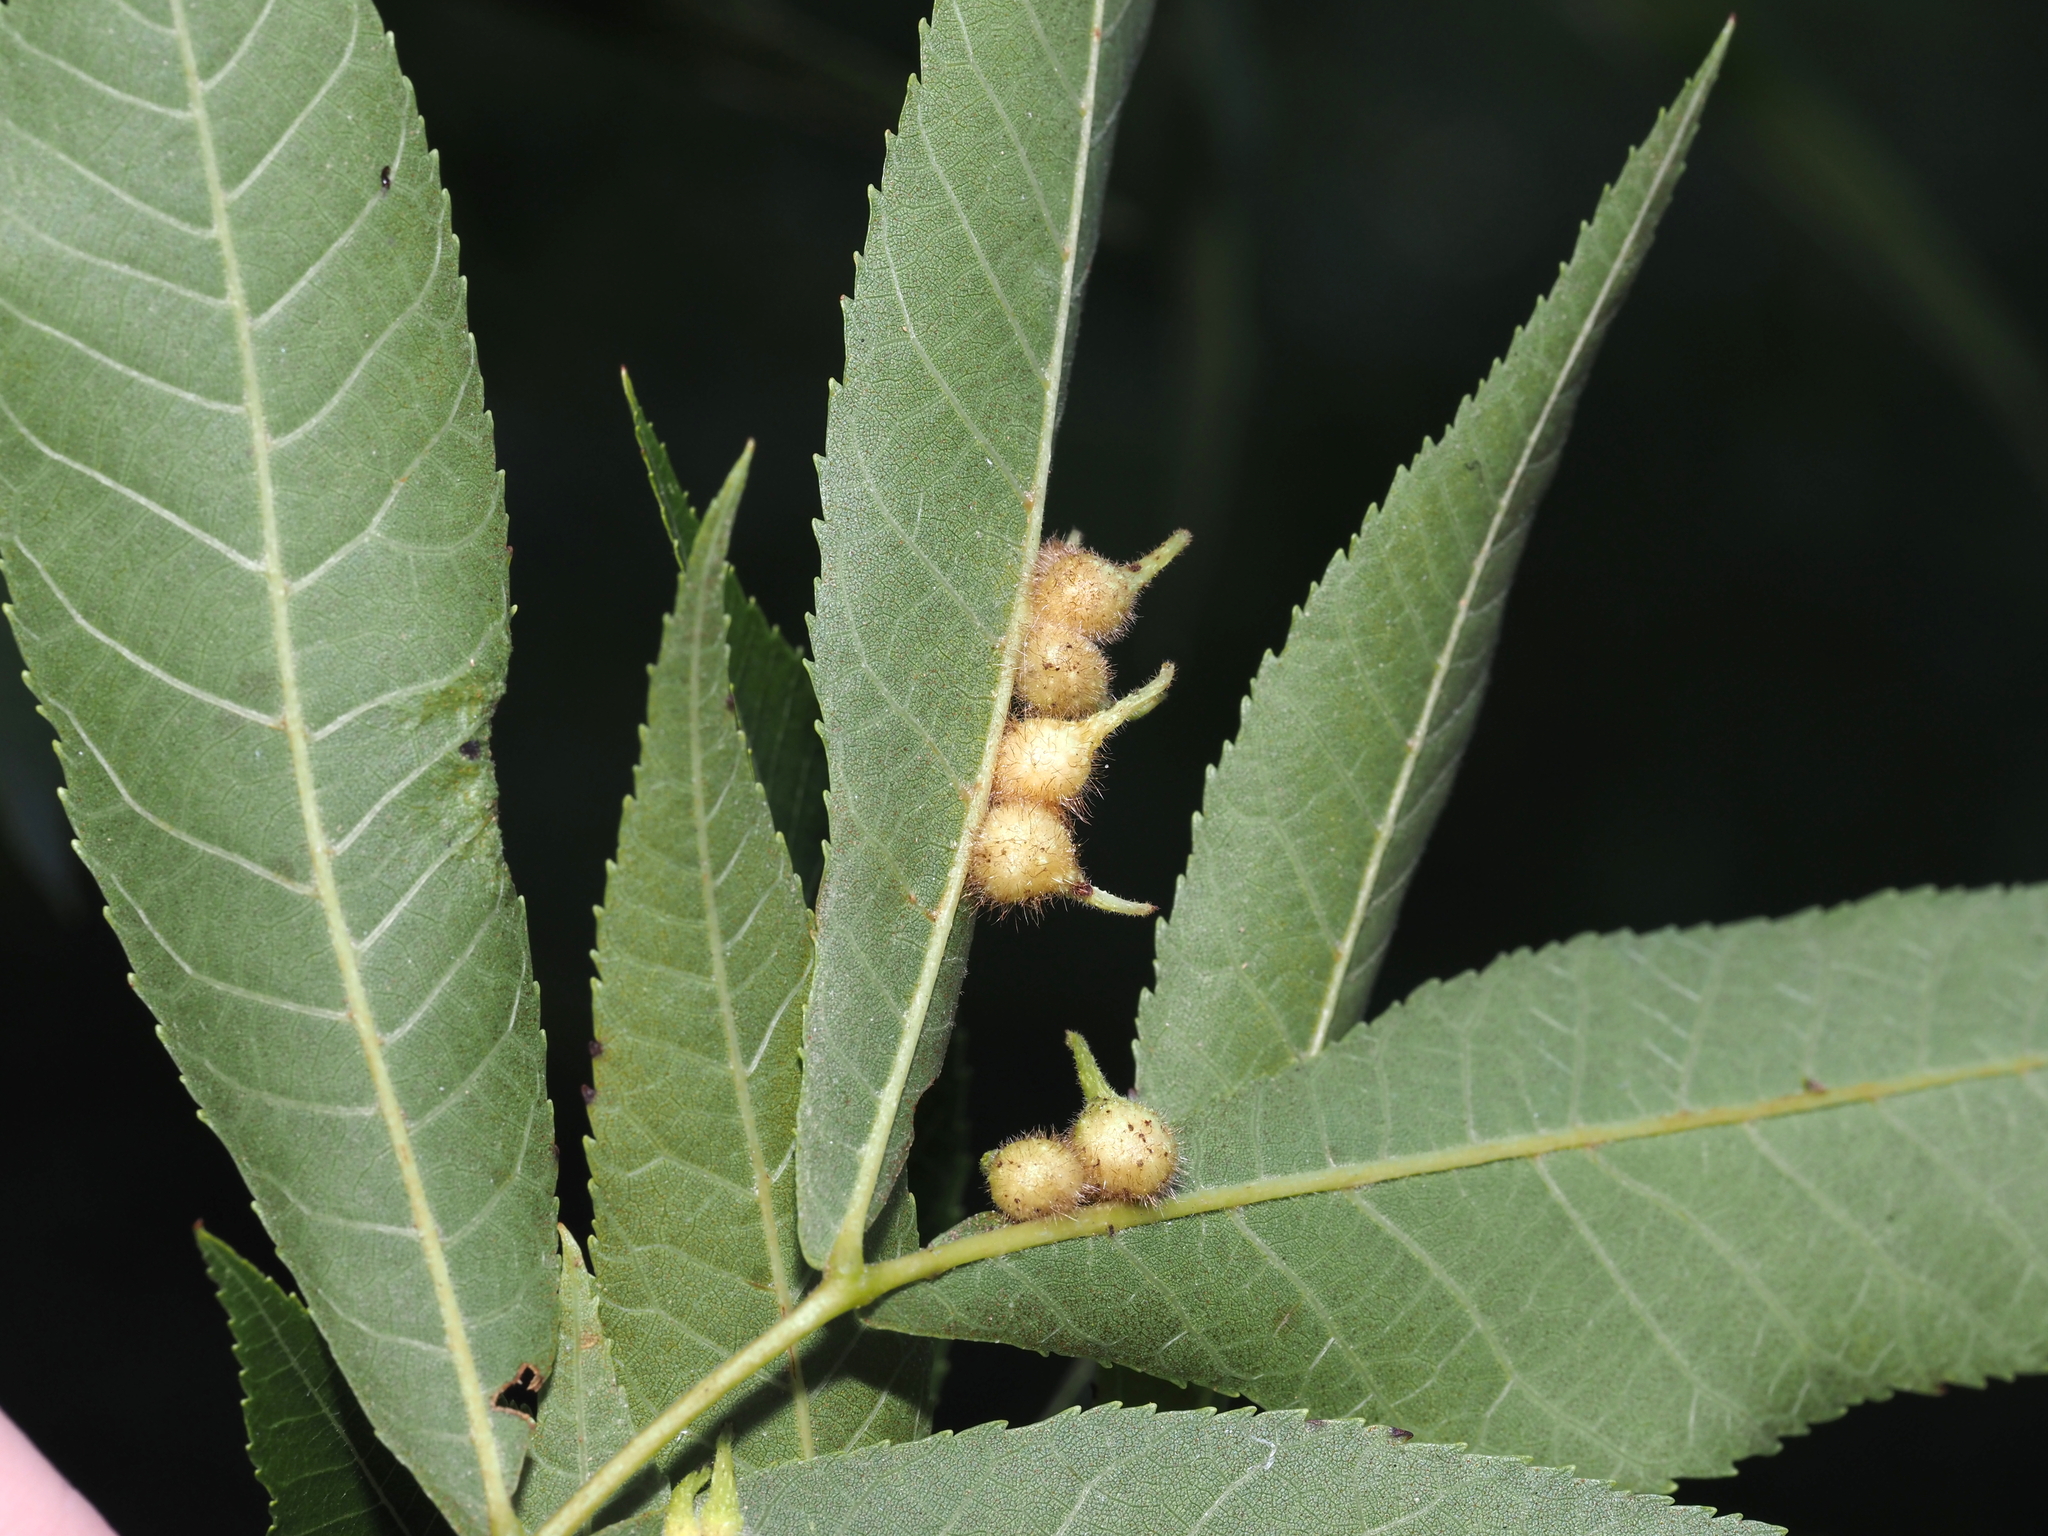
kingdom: Animalia
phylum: Arthropoda
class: Insecta
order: Diptera
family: Cecidomyiidae
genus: Caryomyia
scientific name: Caryomyia ansericollum
